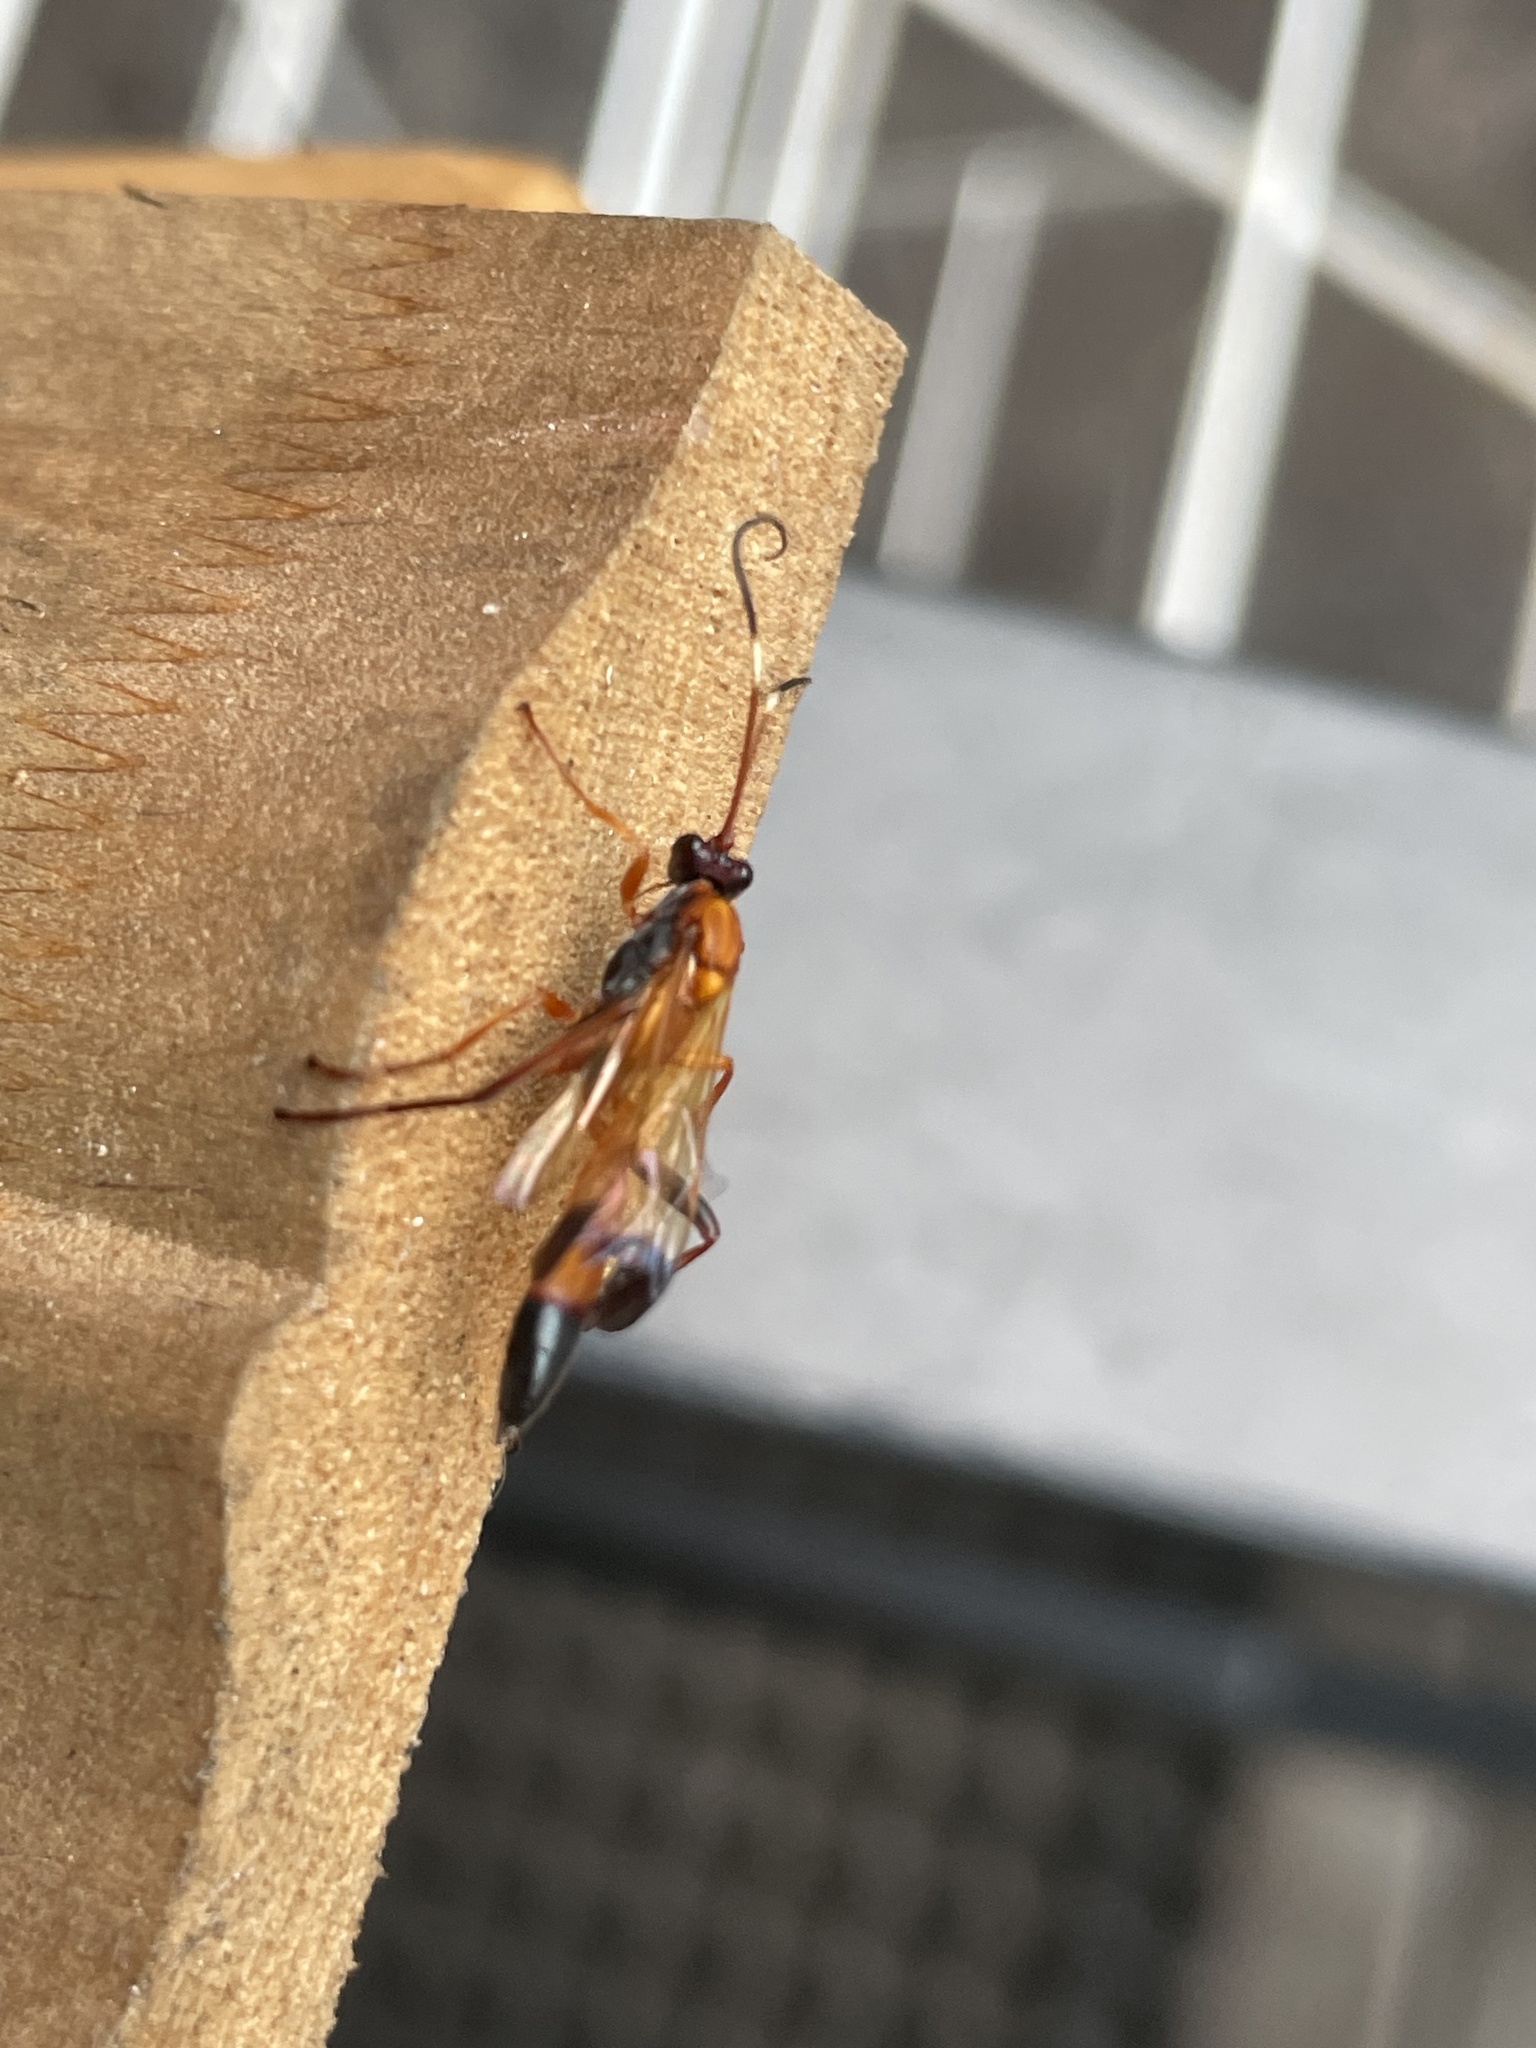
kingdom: Animalia
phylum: Arthropoda
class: Insecta
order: Hymenoptera
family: Ichneumonidae
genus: Ctenochares
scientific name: Ctenochares bicolorus
